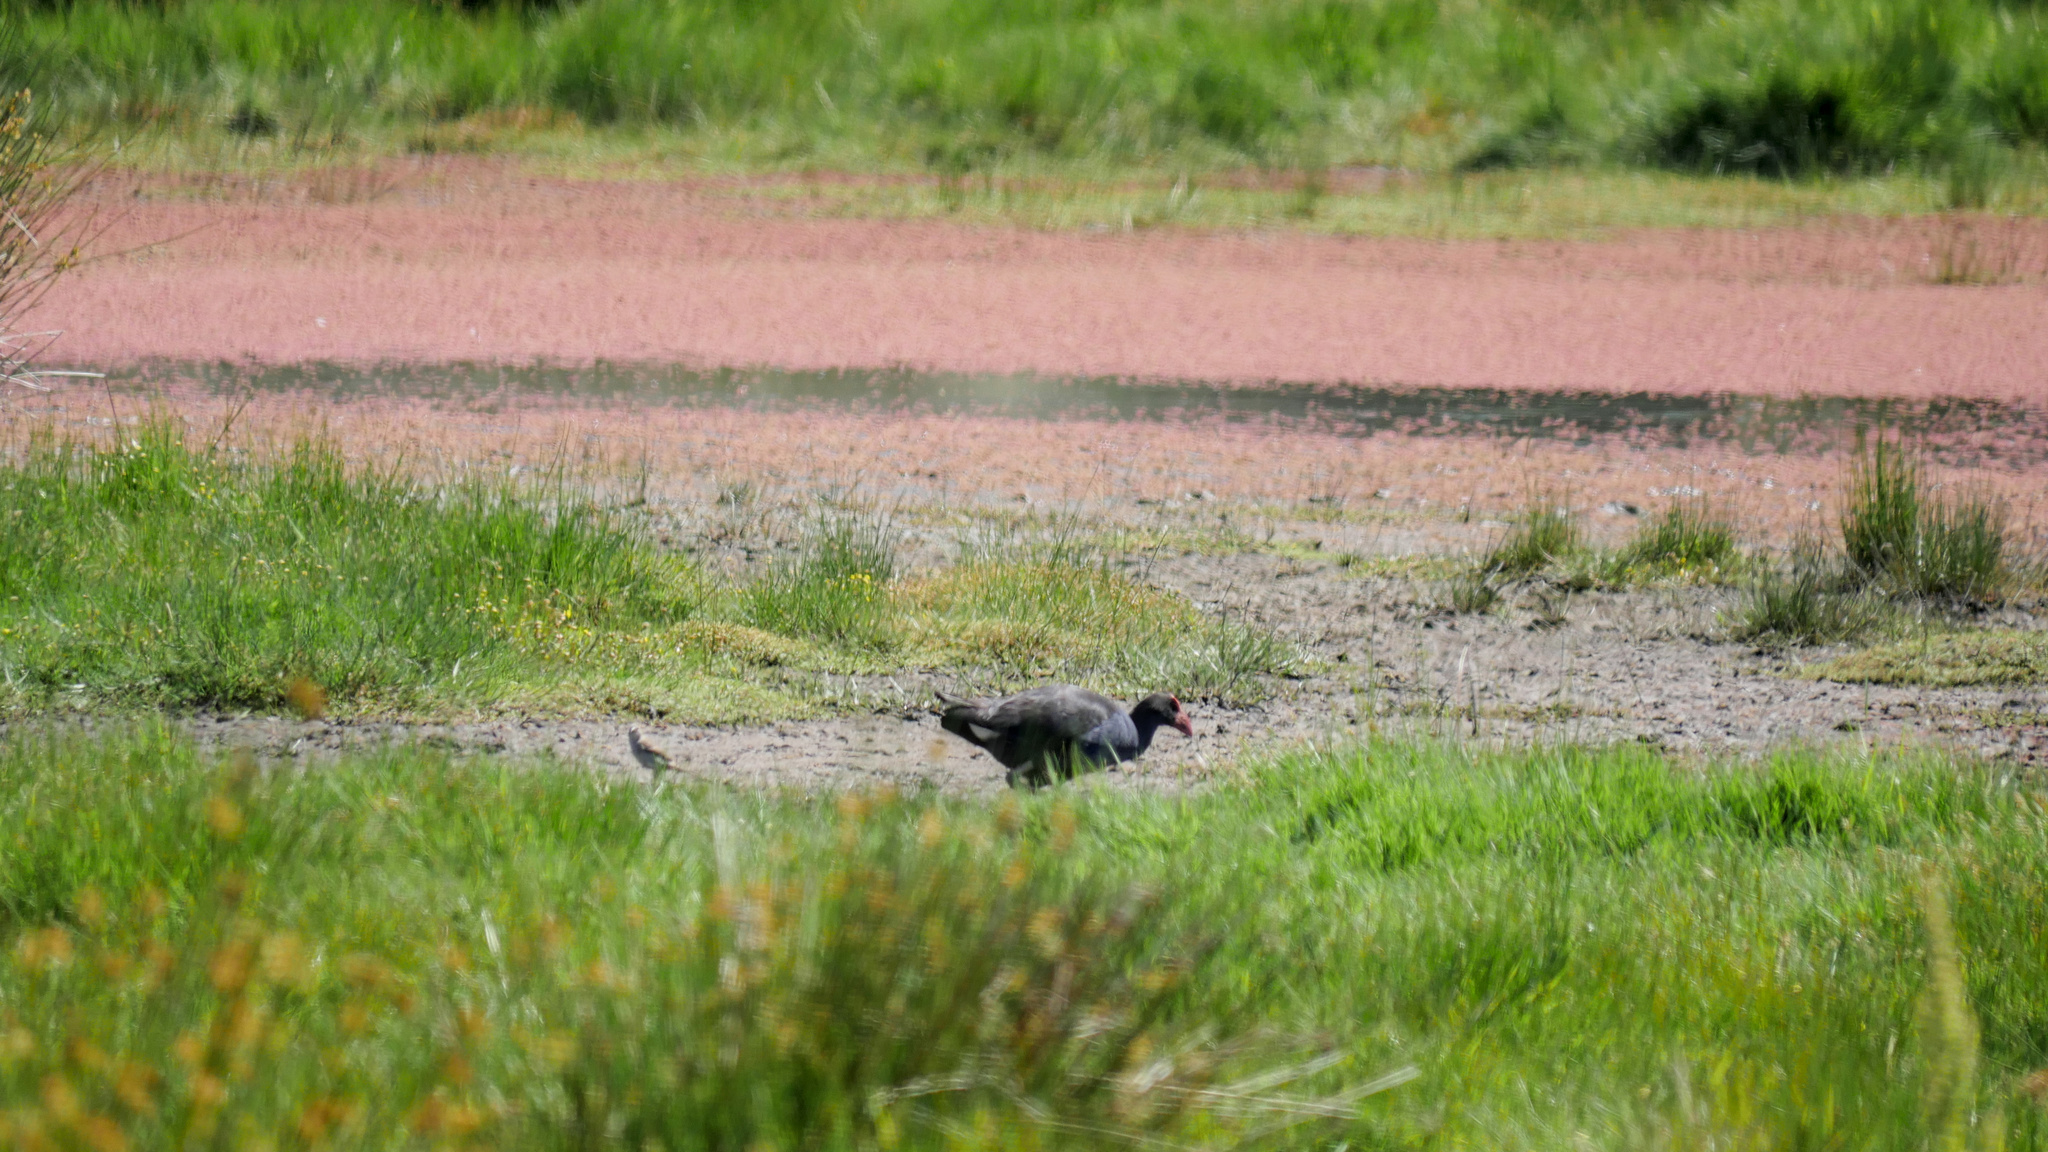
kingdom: Animalia
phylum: Chordata
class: Aves
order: Gruiformes
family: Rallidae
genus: Porphyrio
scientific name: Porphyrio melanotus
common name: Australasian swamphen
